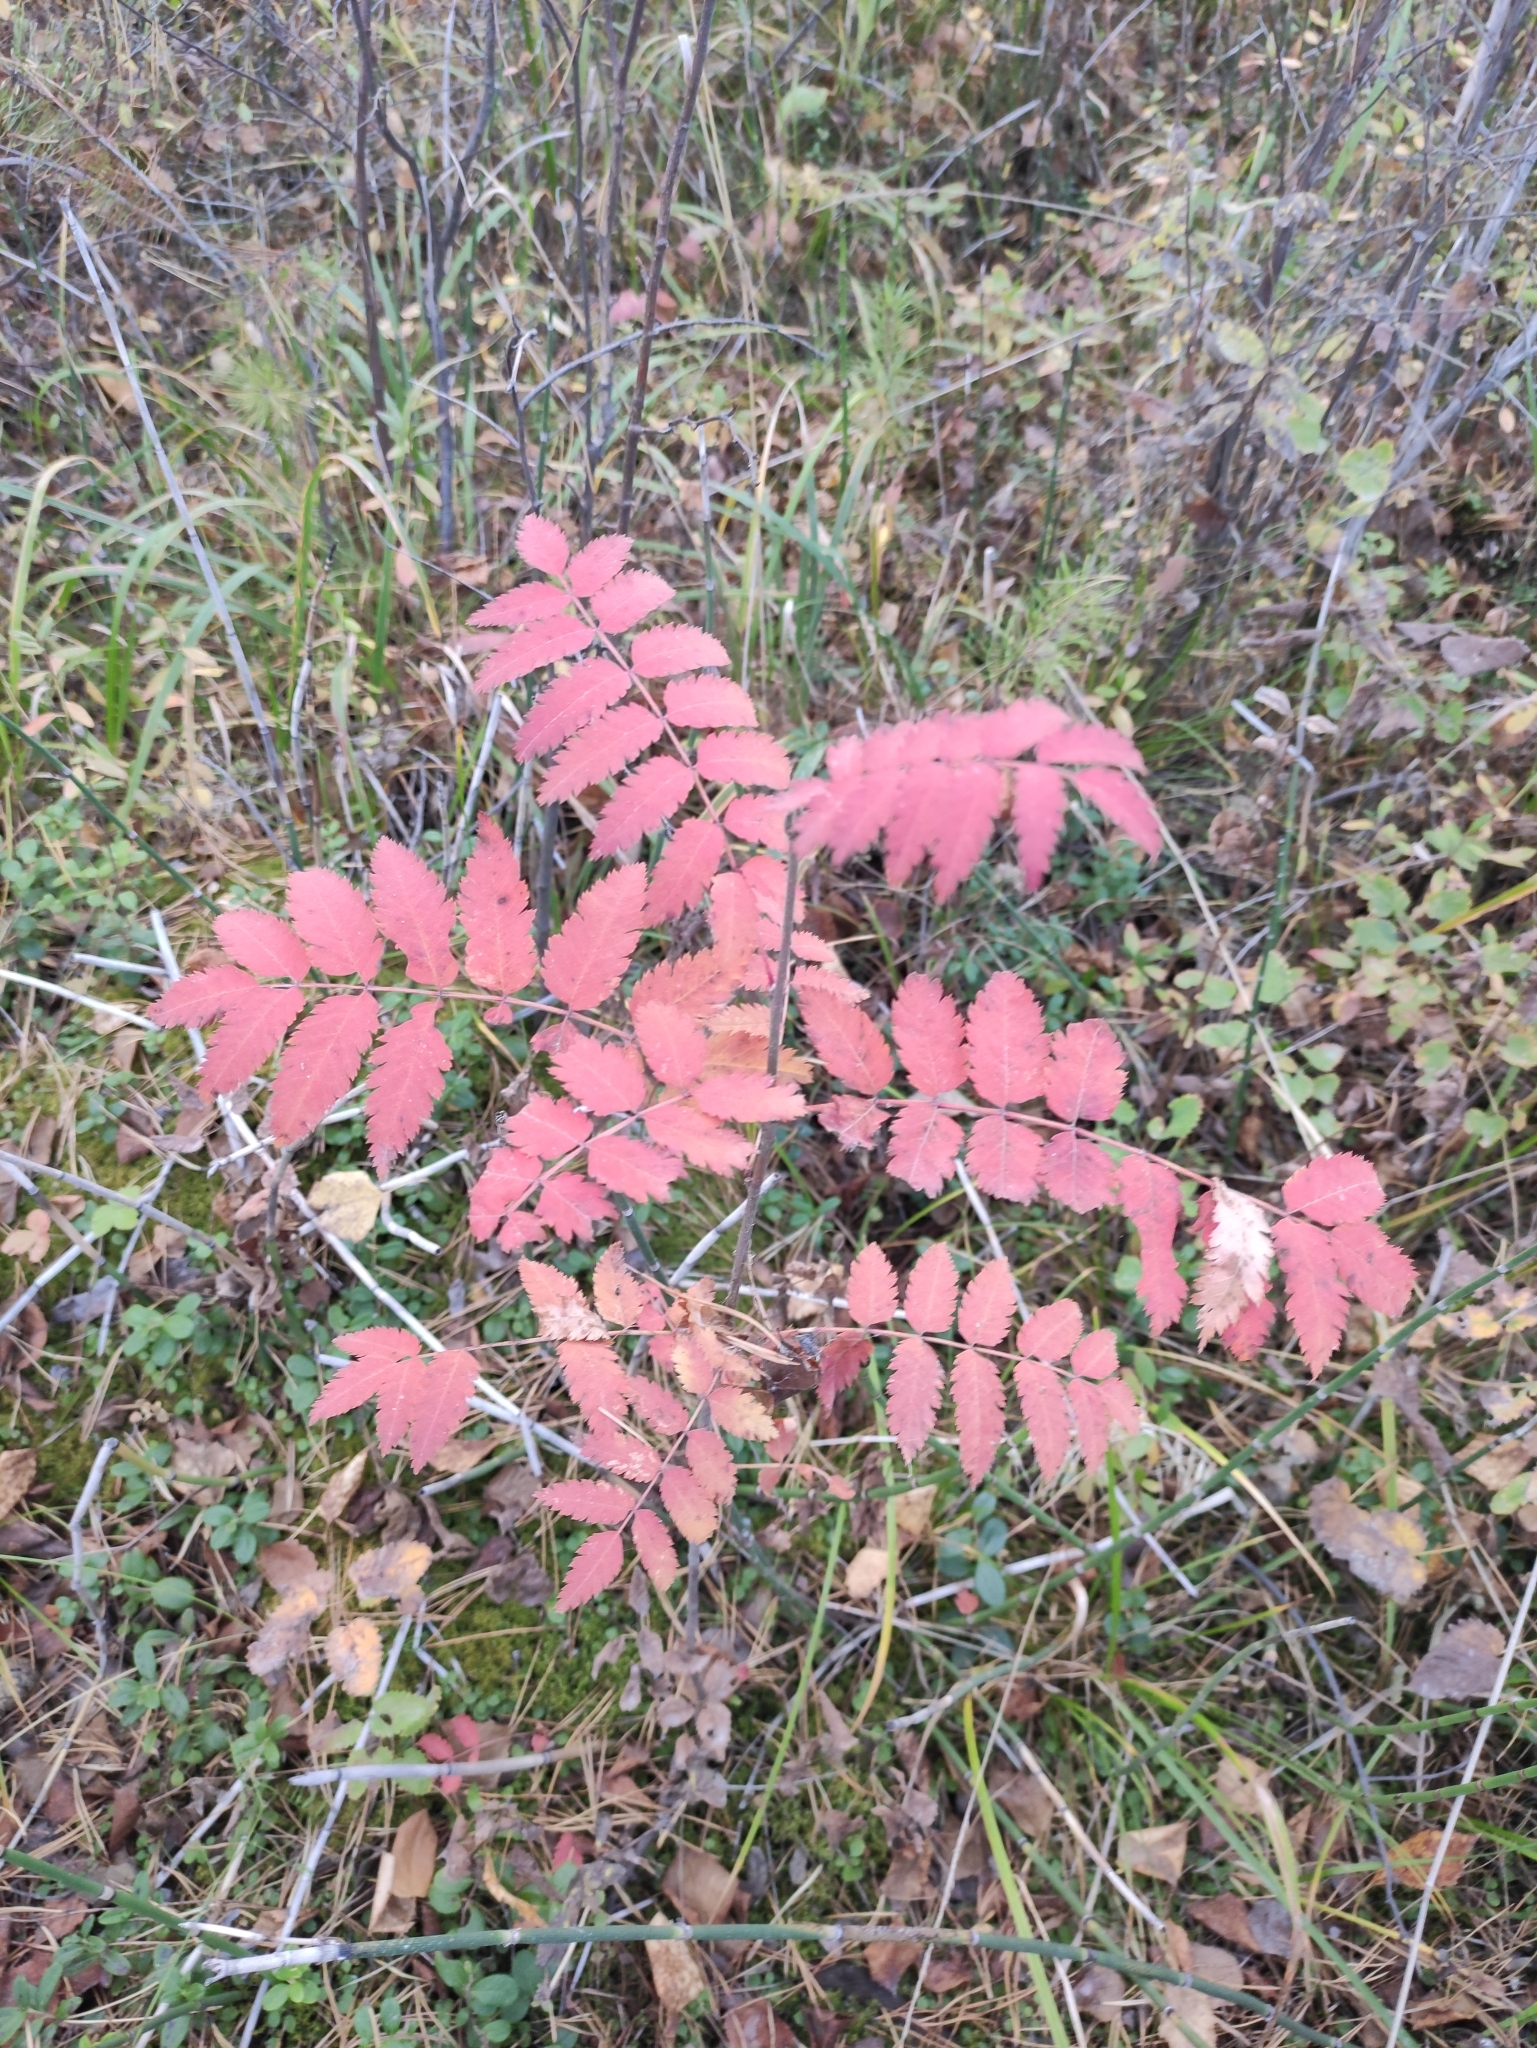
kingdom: Plantae
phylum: Tracheophyta
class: Magnoliopsida
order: Rosales
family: Rosaceae
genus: Sorbus
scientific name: Sorbus aucuparia
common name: Rowan
